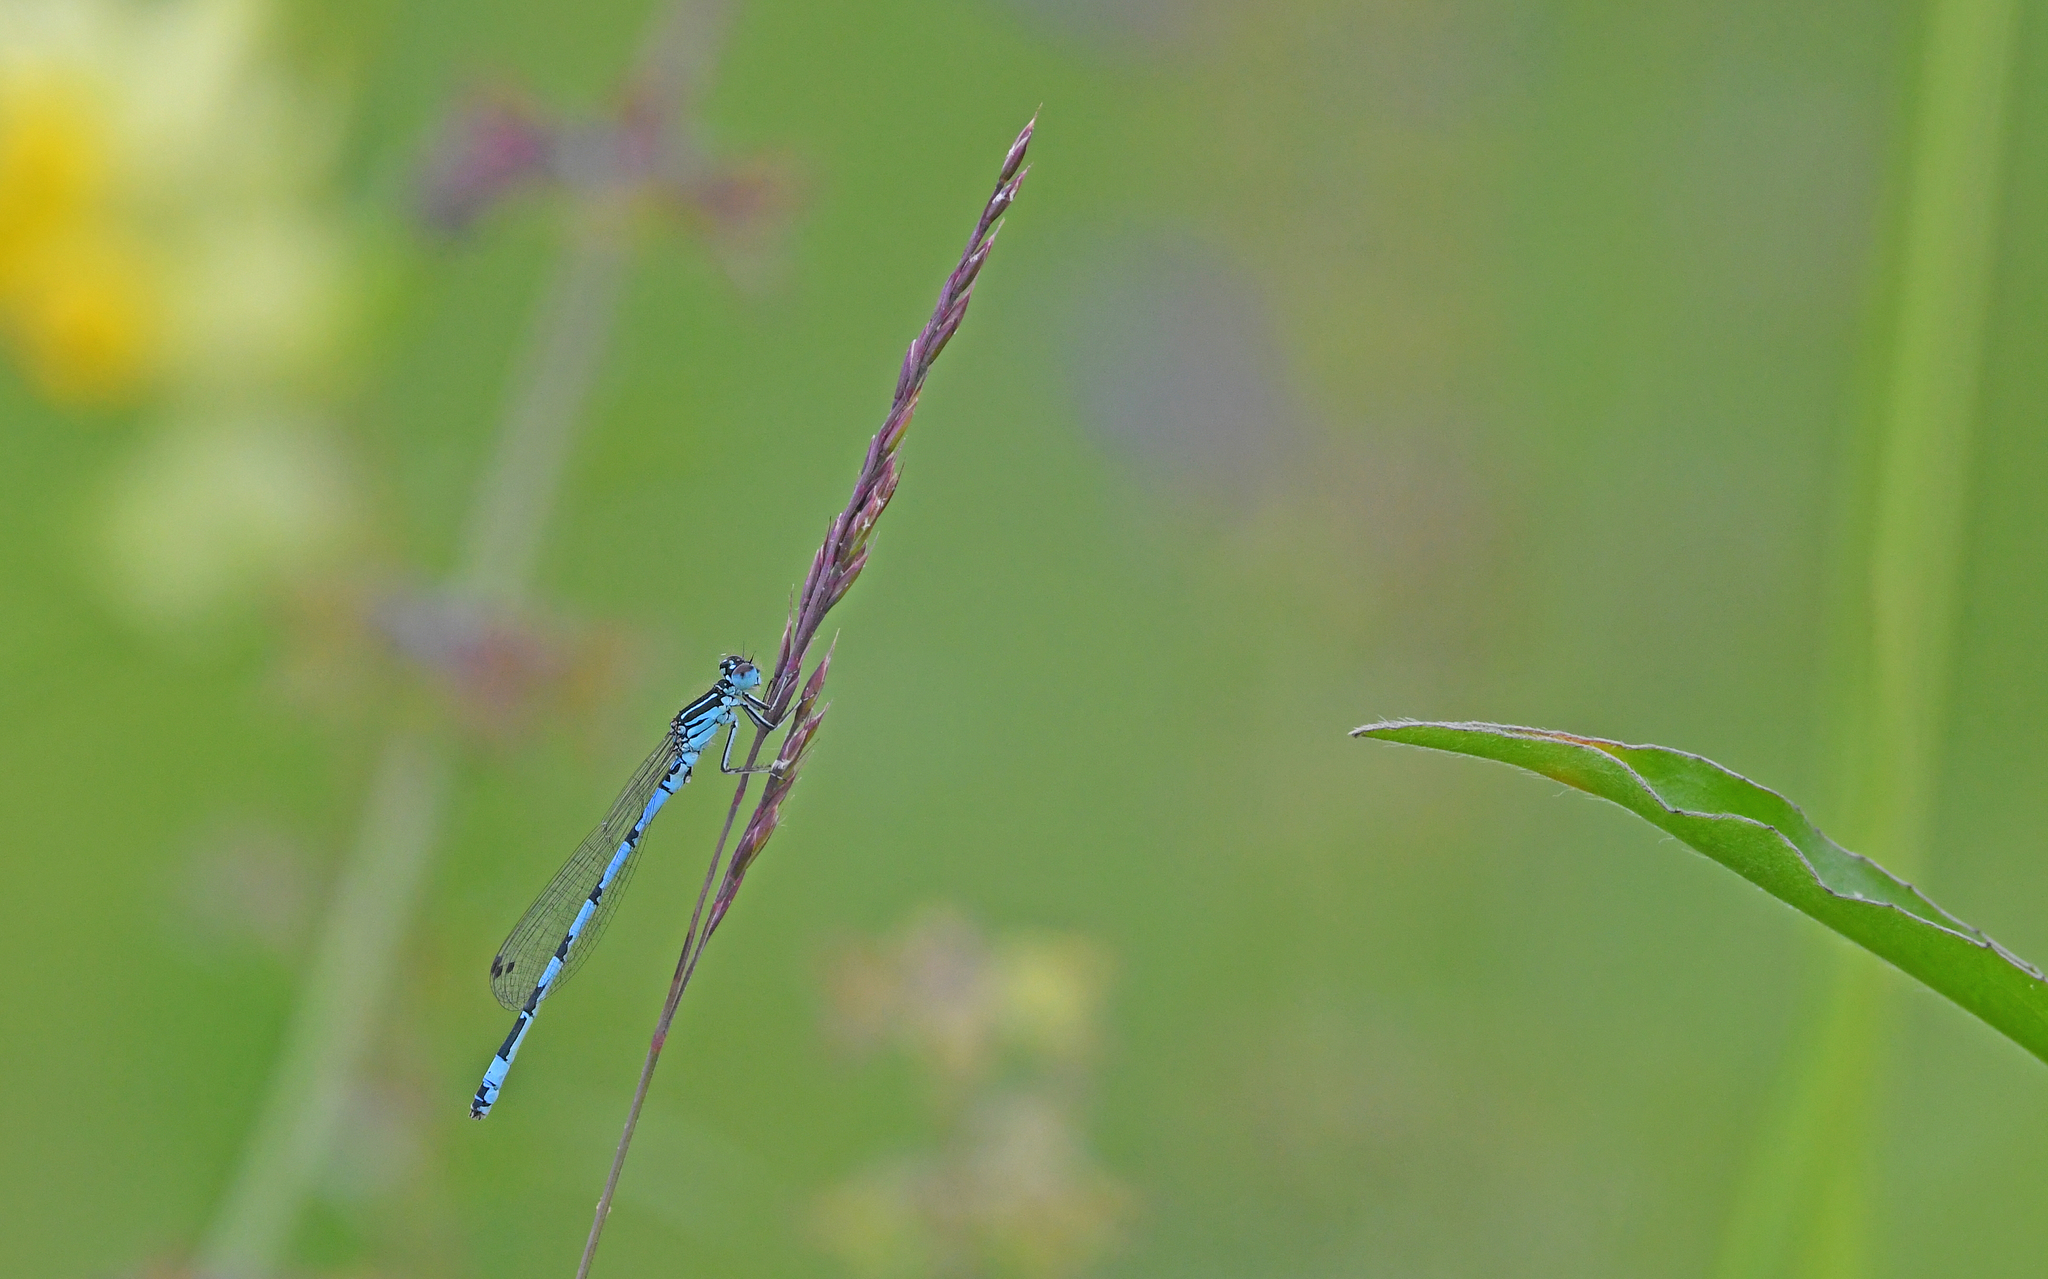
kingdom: Animalia
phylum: Arthropoda
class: Insecta
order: Odonata
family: Coenagrionidae
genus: Coenagrion
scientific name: Coenagrion mercuriale
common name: Southern damselfly
